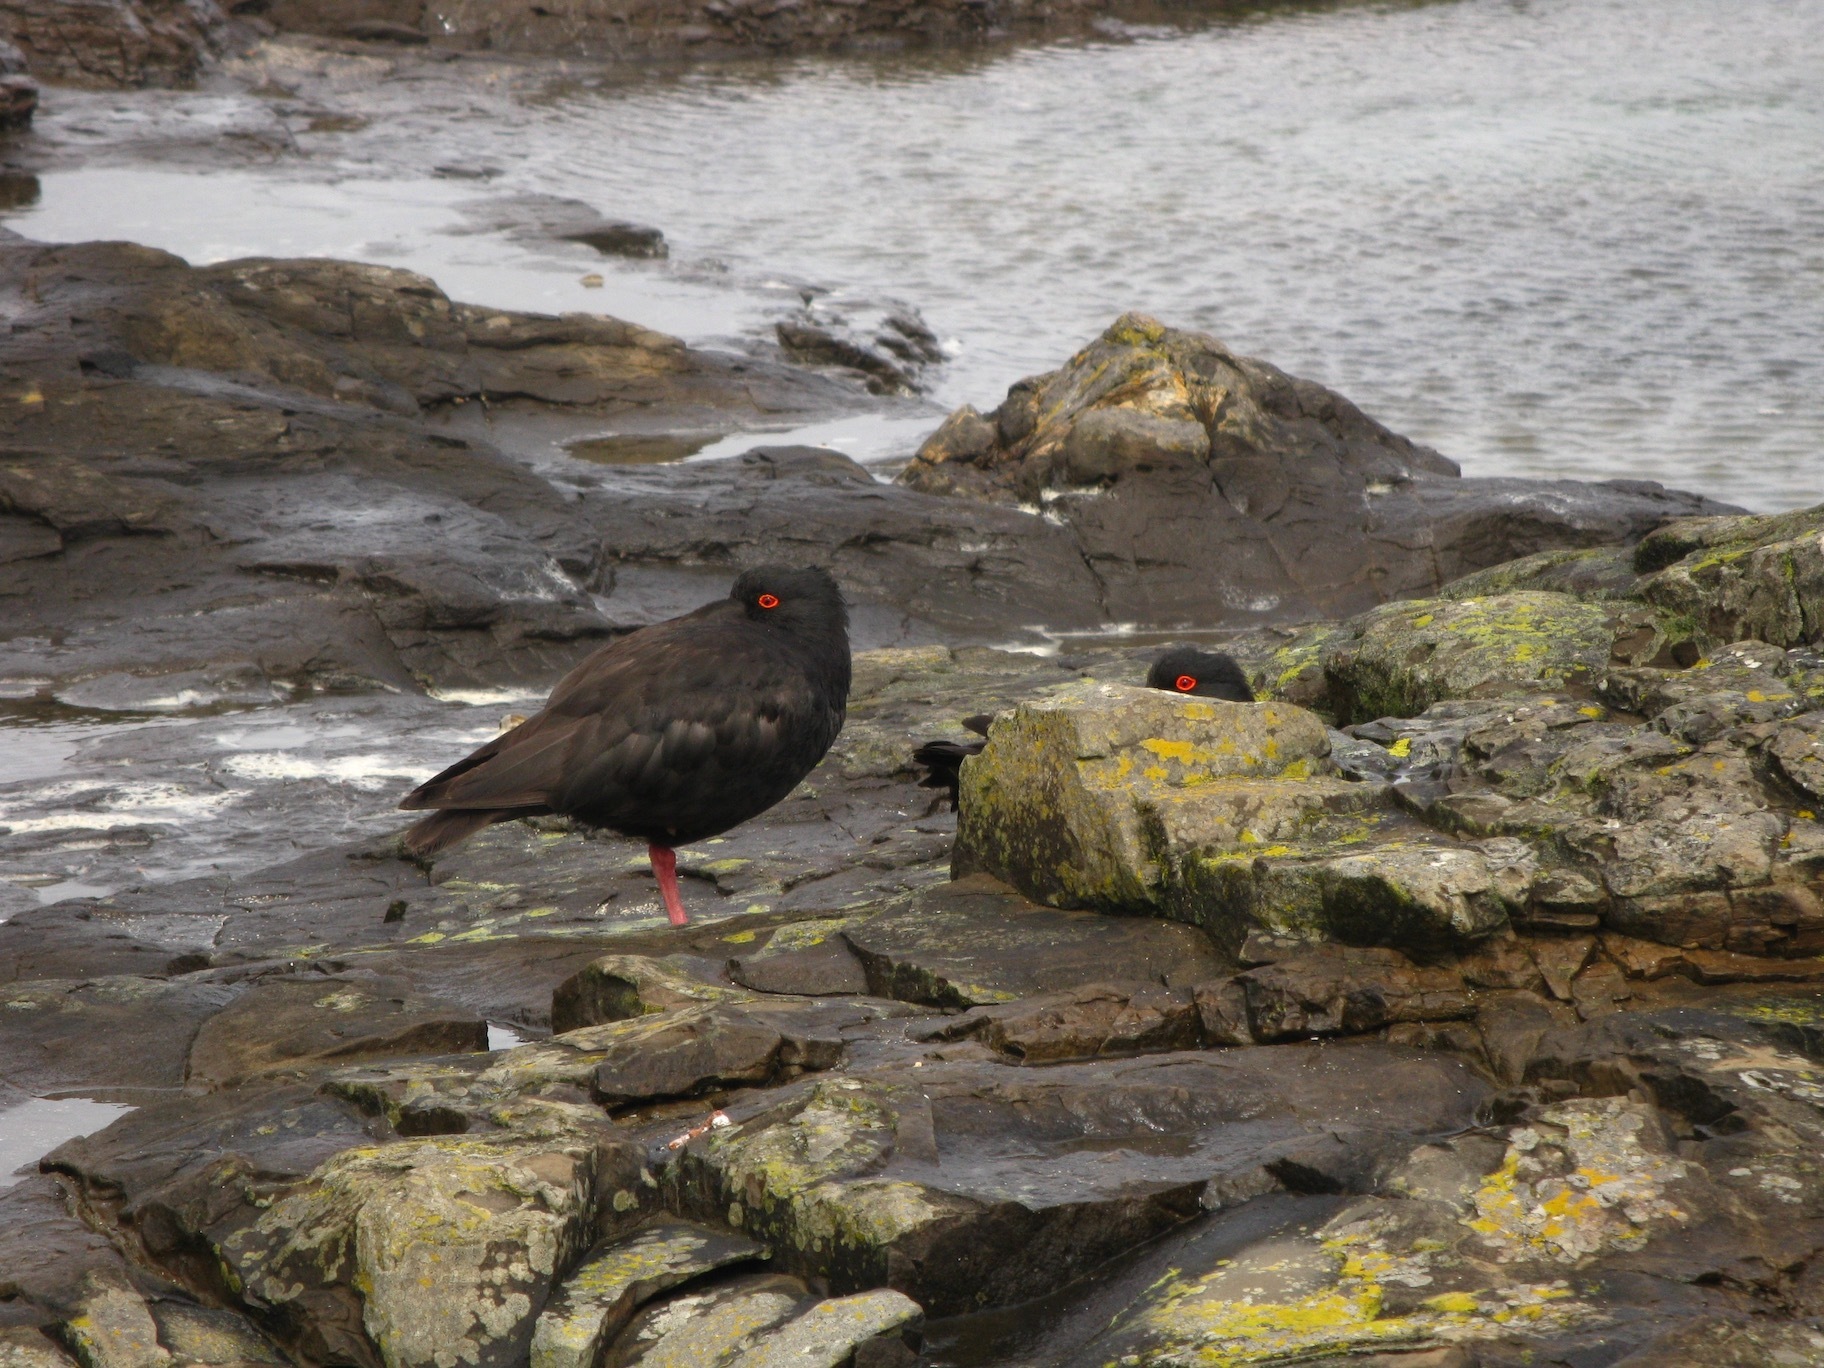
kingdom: Animalia
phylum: Chordata
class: Aves
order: Charadriiformes
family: Haematopodidae
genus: Haematopus
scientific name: Haematopus unicolor
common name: Variable oystercatcher
